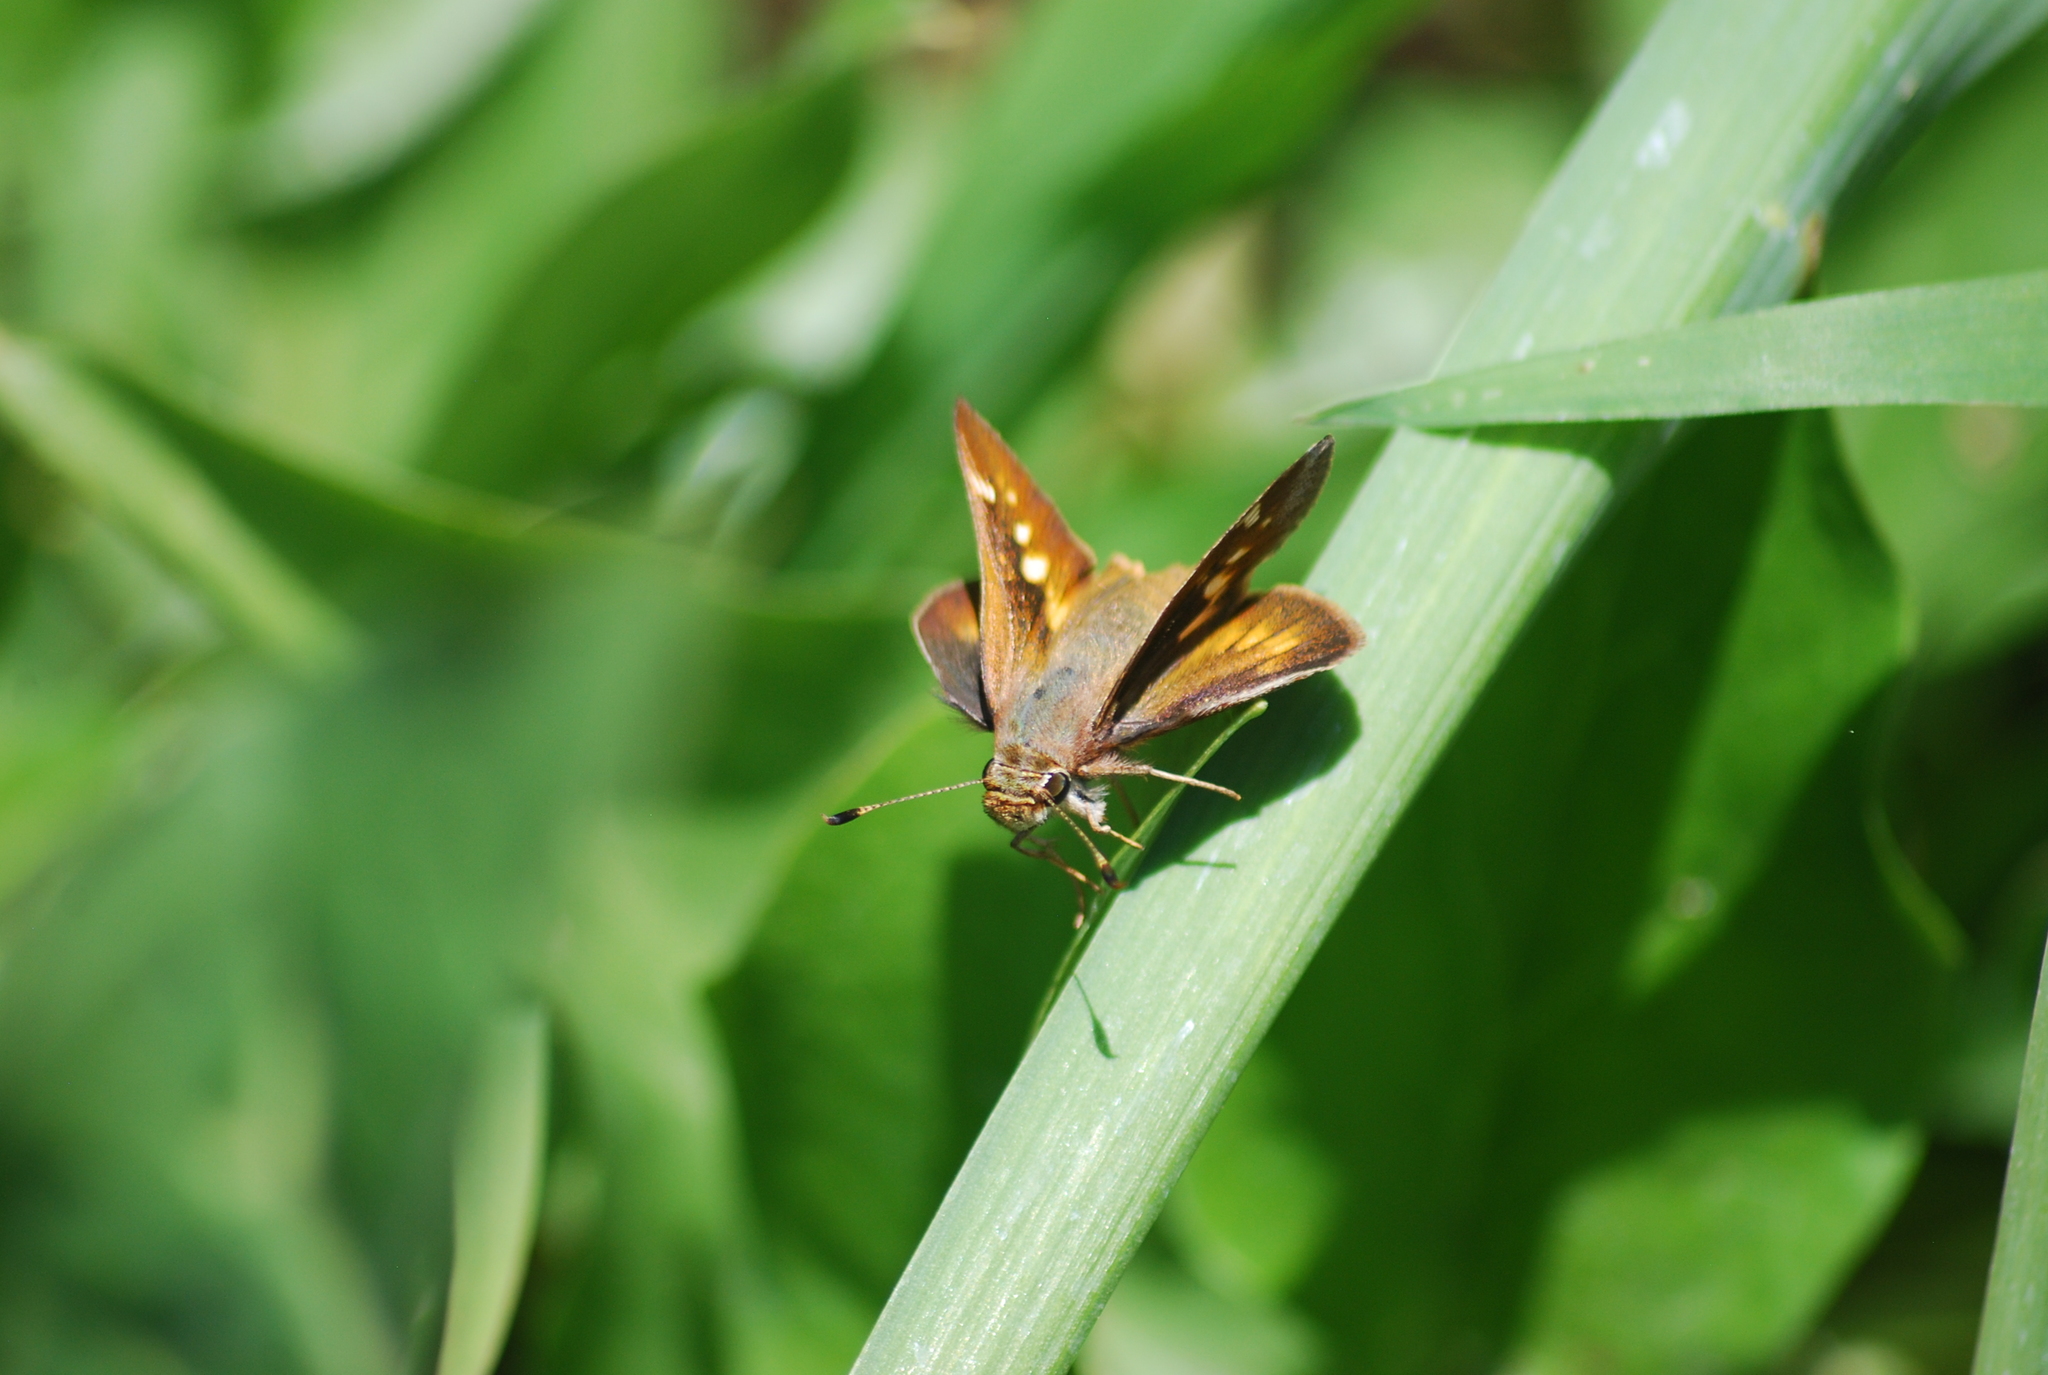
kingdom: Animalia
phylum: Arthropoda
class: Insecta
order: Lepidoptera
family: Hesperiidae
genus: Lon
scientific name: Lon melane
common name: Umber skipper
